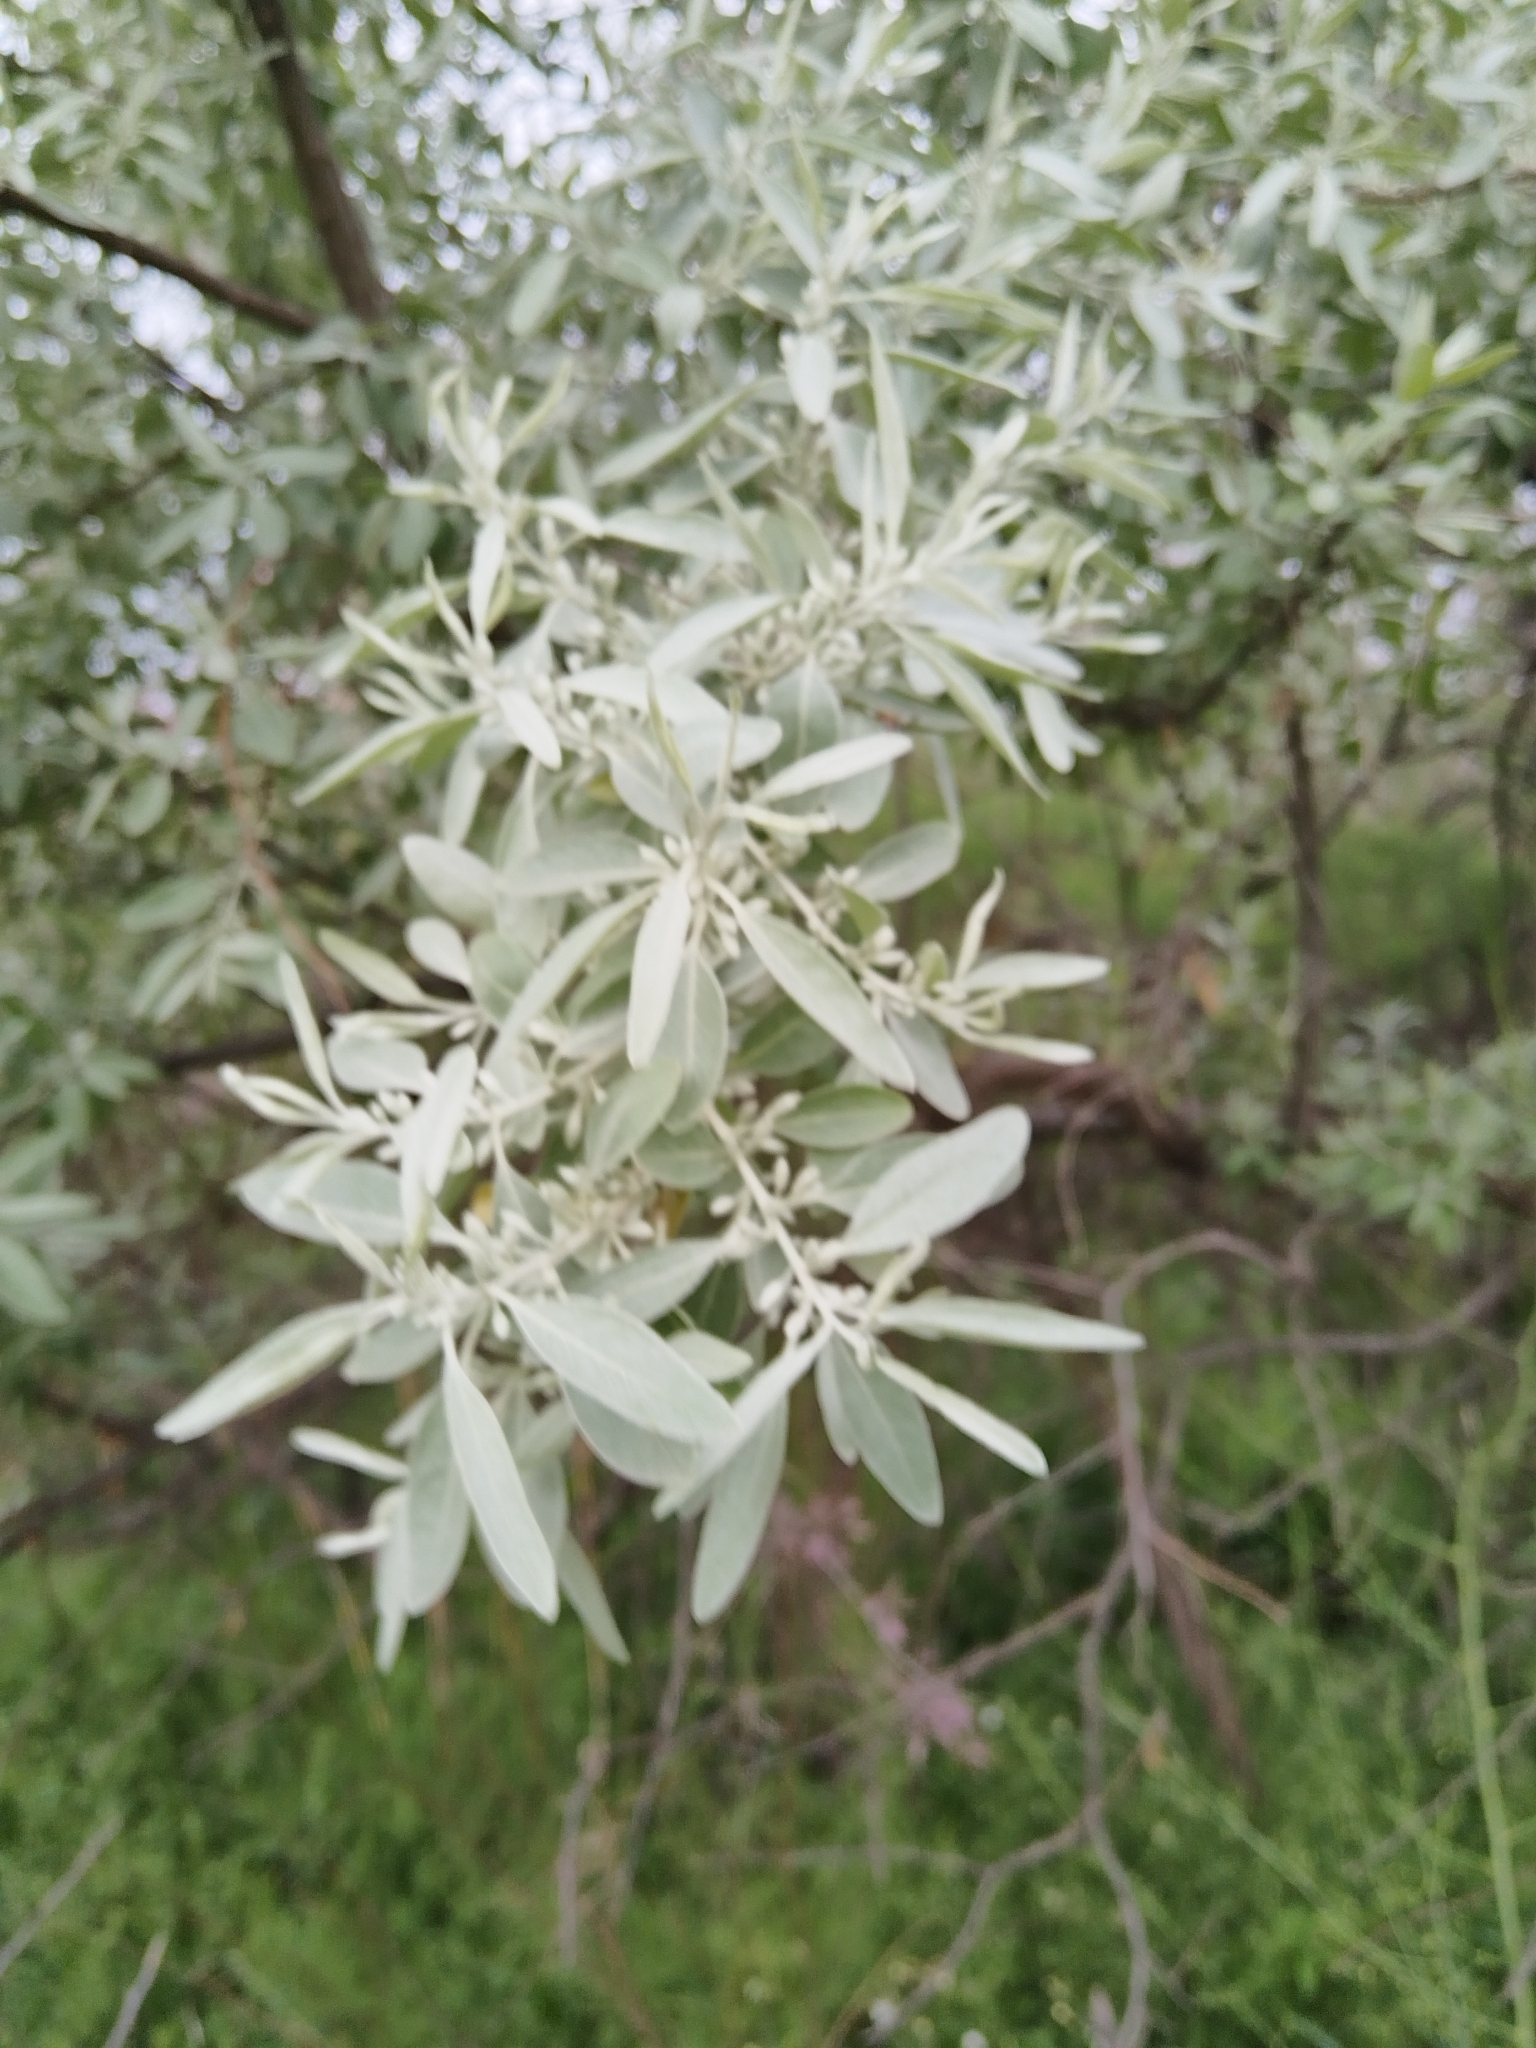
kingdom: Plantae
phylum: Tracheophyta
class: Magnoliopsida
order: Rosales
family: Elaeagnaceae
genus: Elaeagnus
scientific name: Elaeagnus angustifolia
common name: Russian olive
